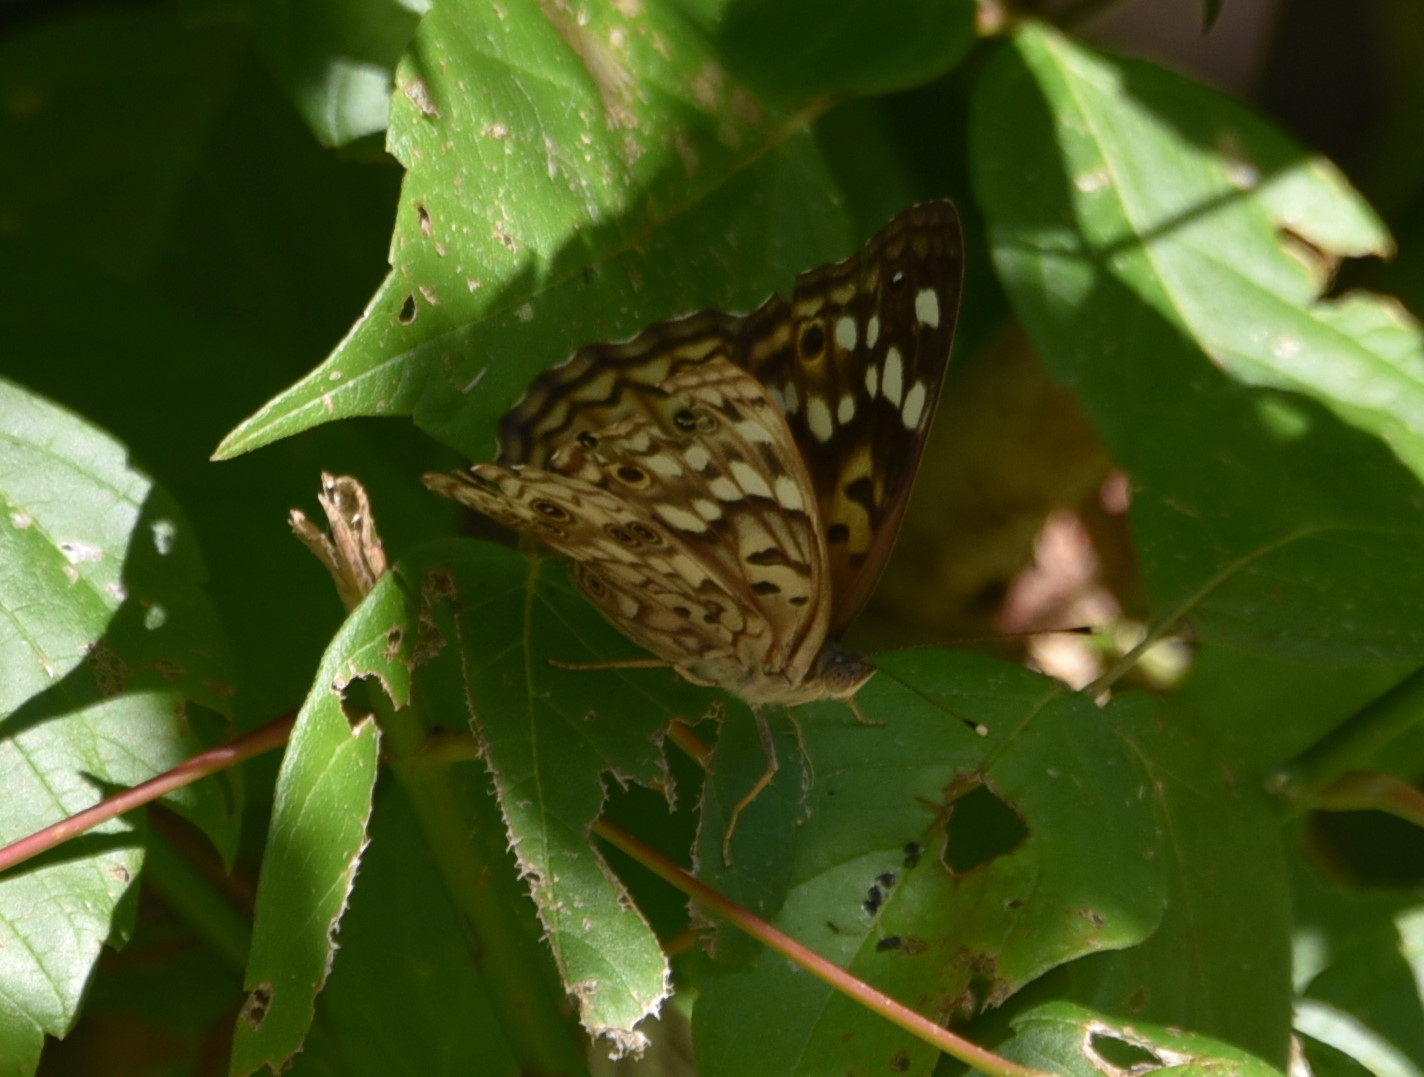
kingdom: Animalia
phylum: Arthropoda
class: Insecta
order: Lepidoptera
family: Nymphalidae
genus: Asterocampa
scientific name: Asterocampa celtis
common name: Hackberry emperor
